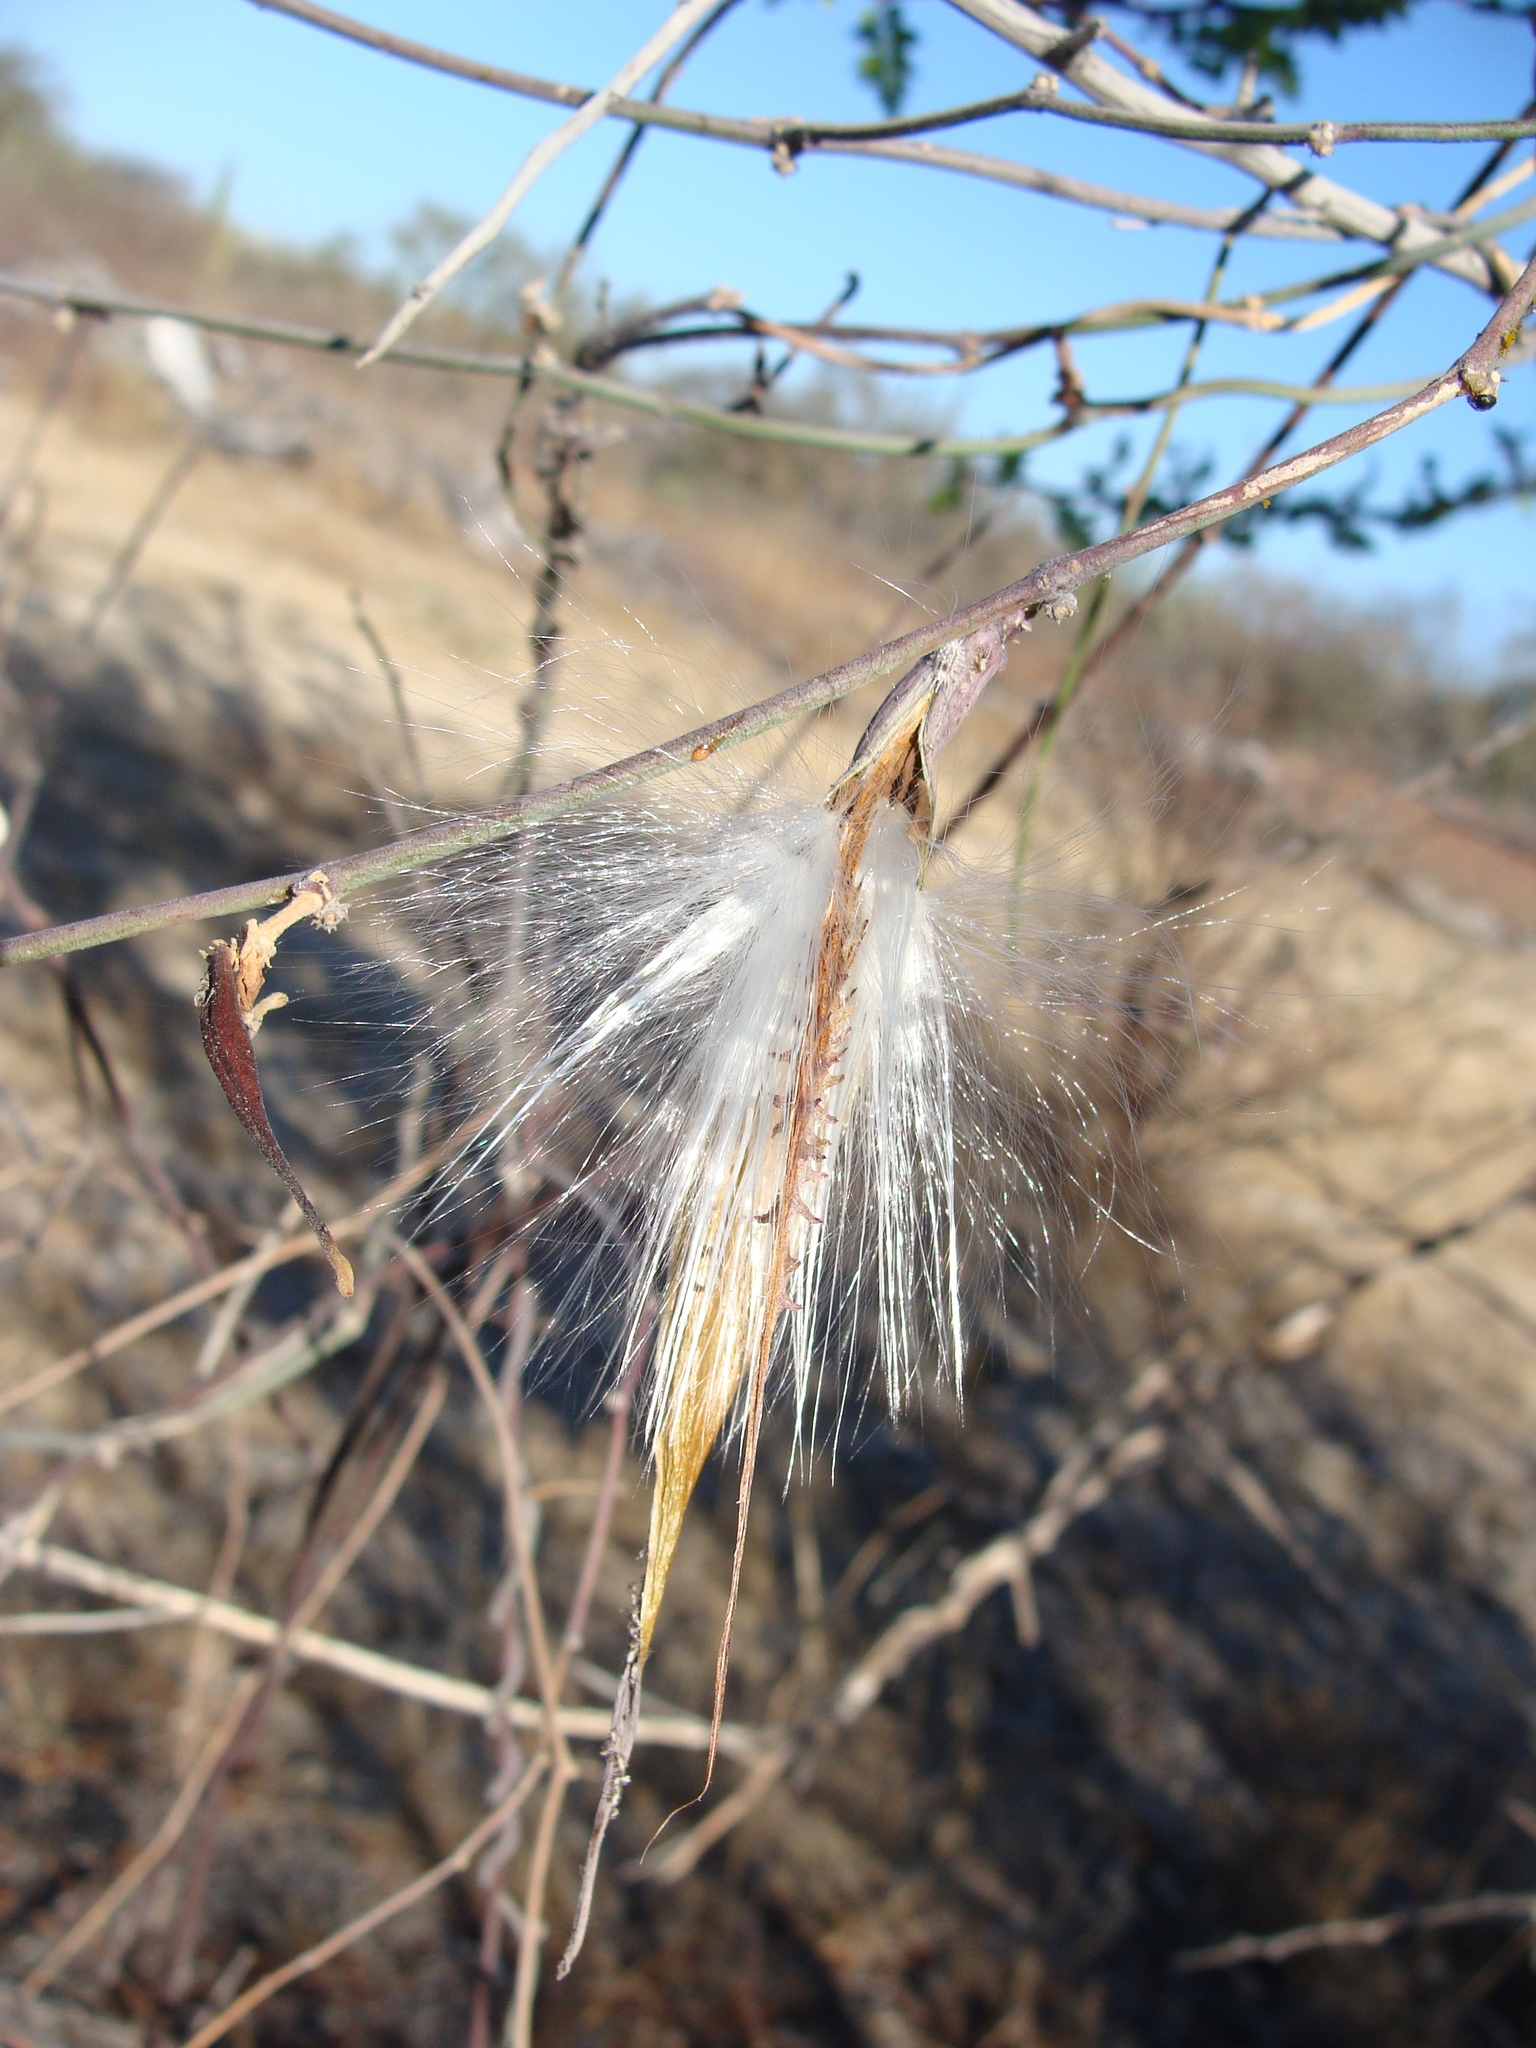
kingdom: Plantae
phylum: Tracheophyta
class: Magnoliopsida
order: Gentianales
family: Apocynaceae
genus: Pattalias
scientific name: Pattalias palmeri
